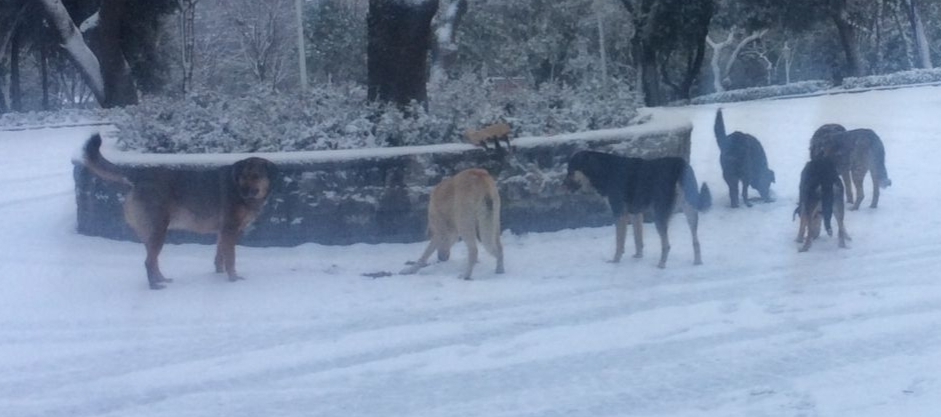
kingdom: Animalia
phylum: Chordata
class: Mammalia
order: Carnivora
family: Canidae
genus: Canis
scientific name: Canis lupus
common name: Gray wolf
